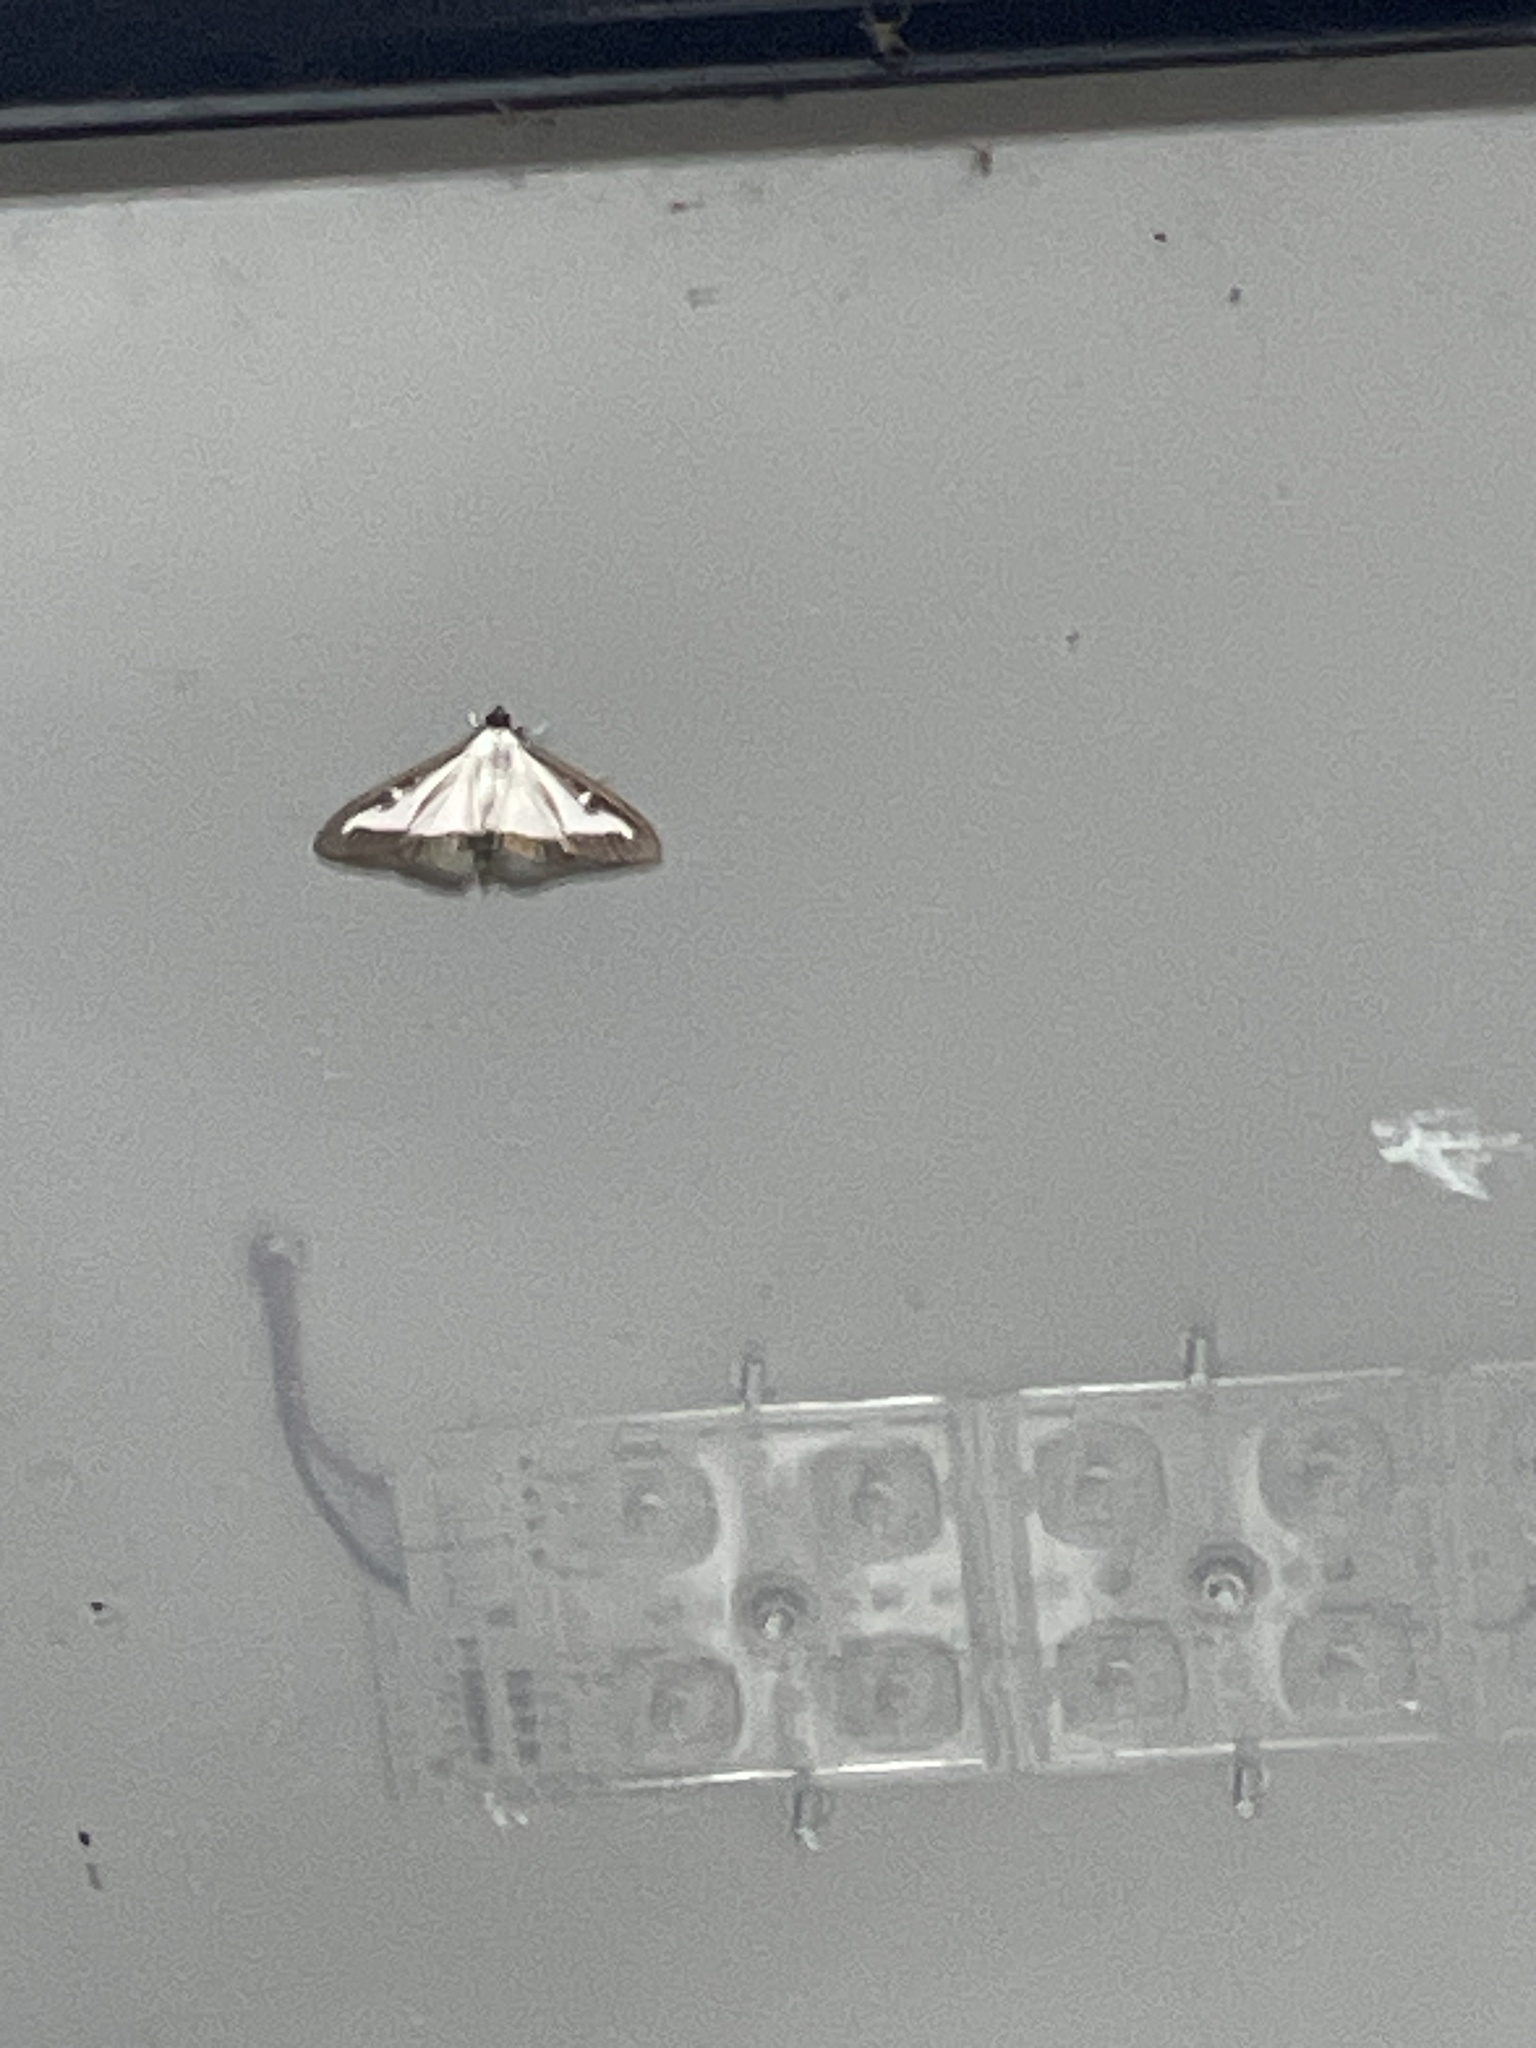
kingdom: Animalia
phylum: Arthropoda
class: Insecta
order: Lepidoptera
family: Crambidae
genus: Cydalima
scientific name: Cydalima perspectalis
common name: Box tree moth
